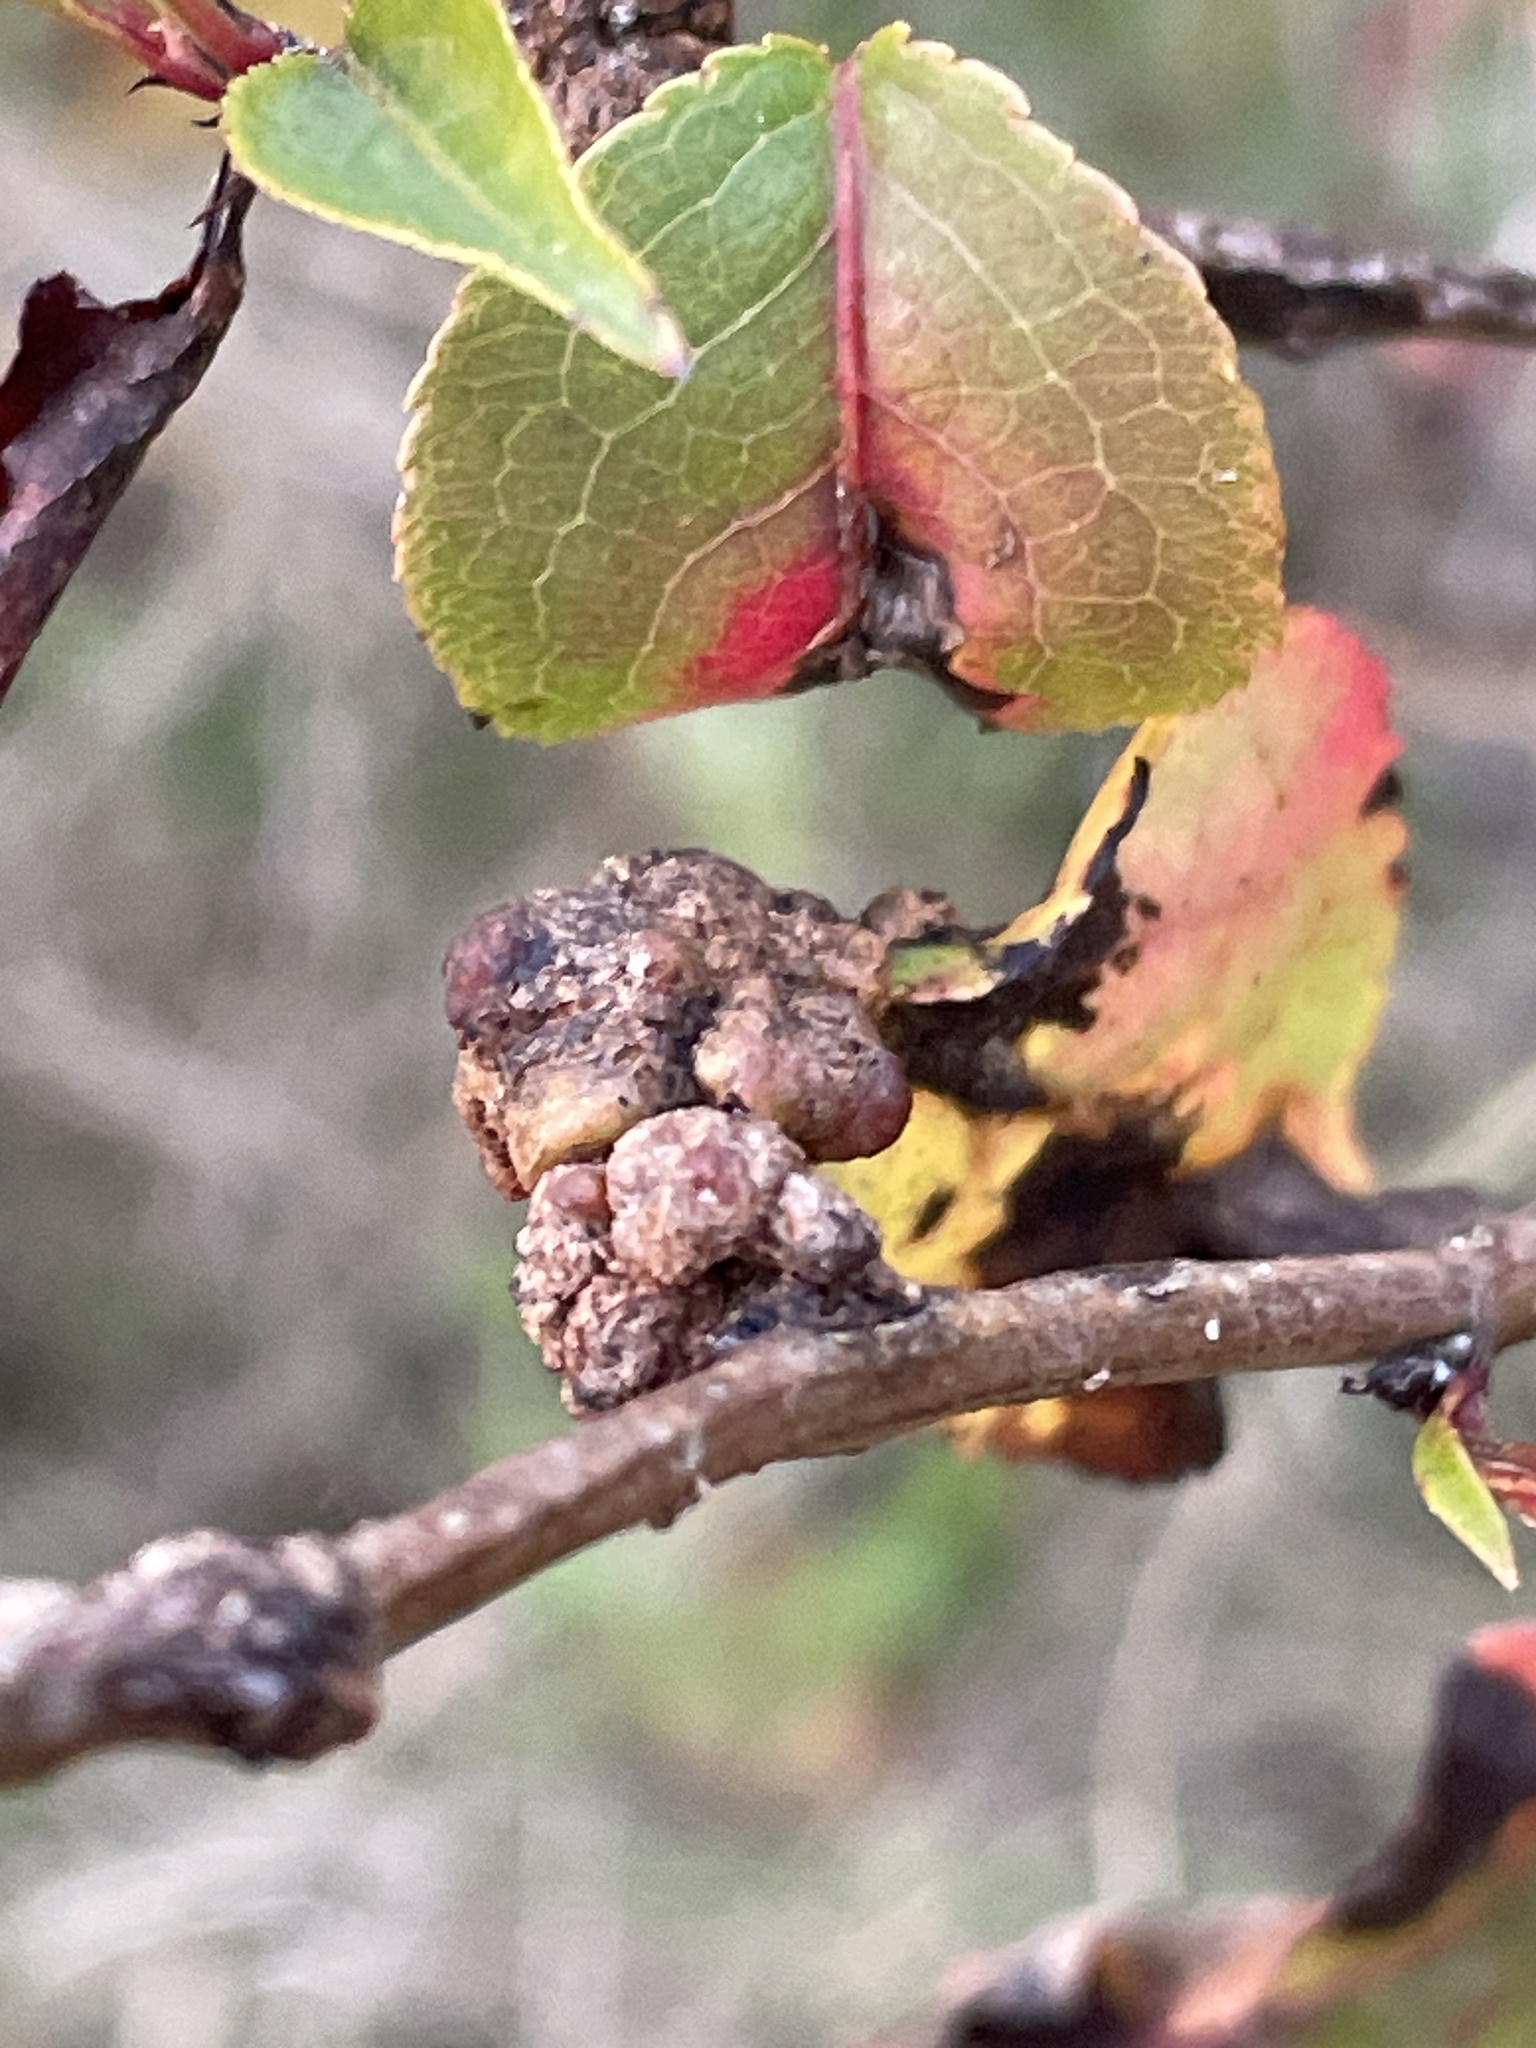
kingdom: Fungi
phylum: Basidiomycota
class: Pucciniomycetes
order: Pucciniales
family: Gymnosporangiaceae
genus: Gymnosporangium
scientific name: Gymnosporangium sabinae
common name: Pear trellis rust fungus
